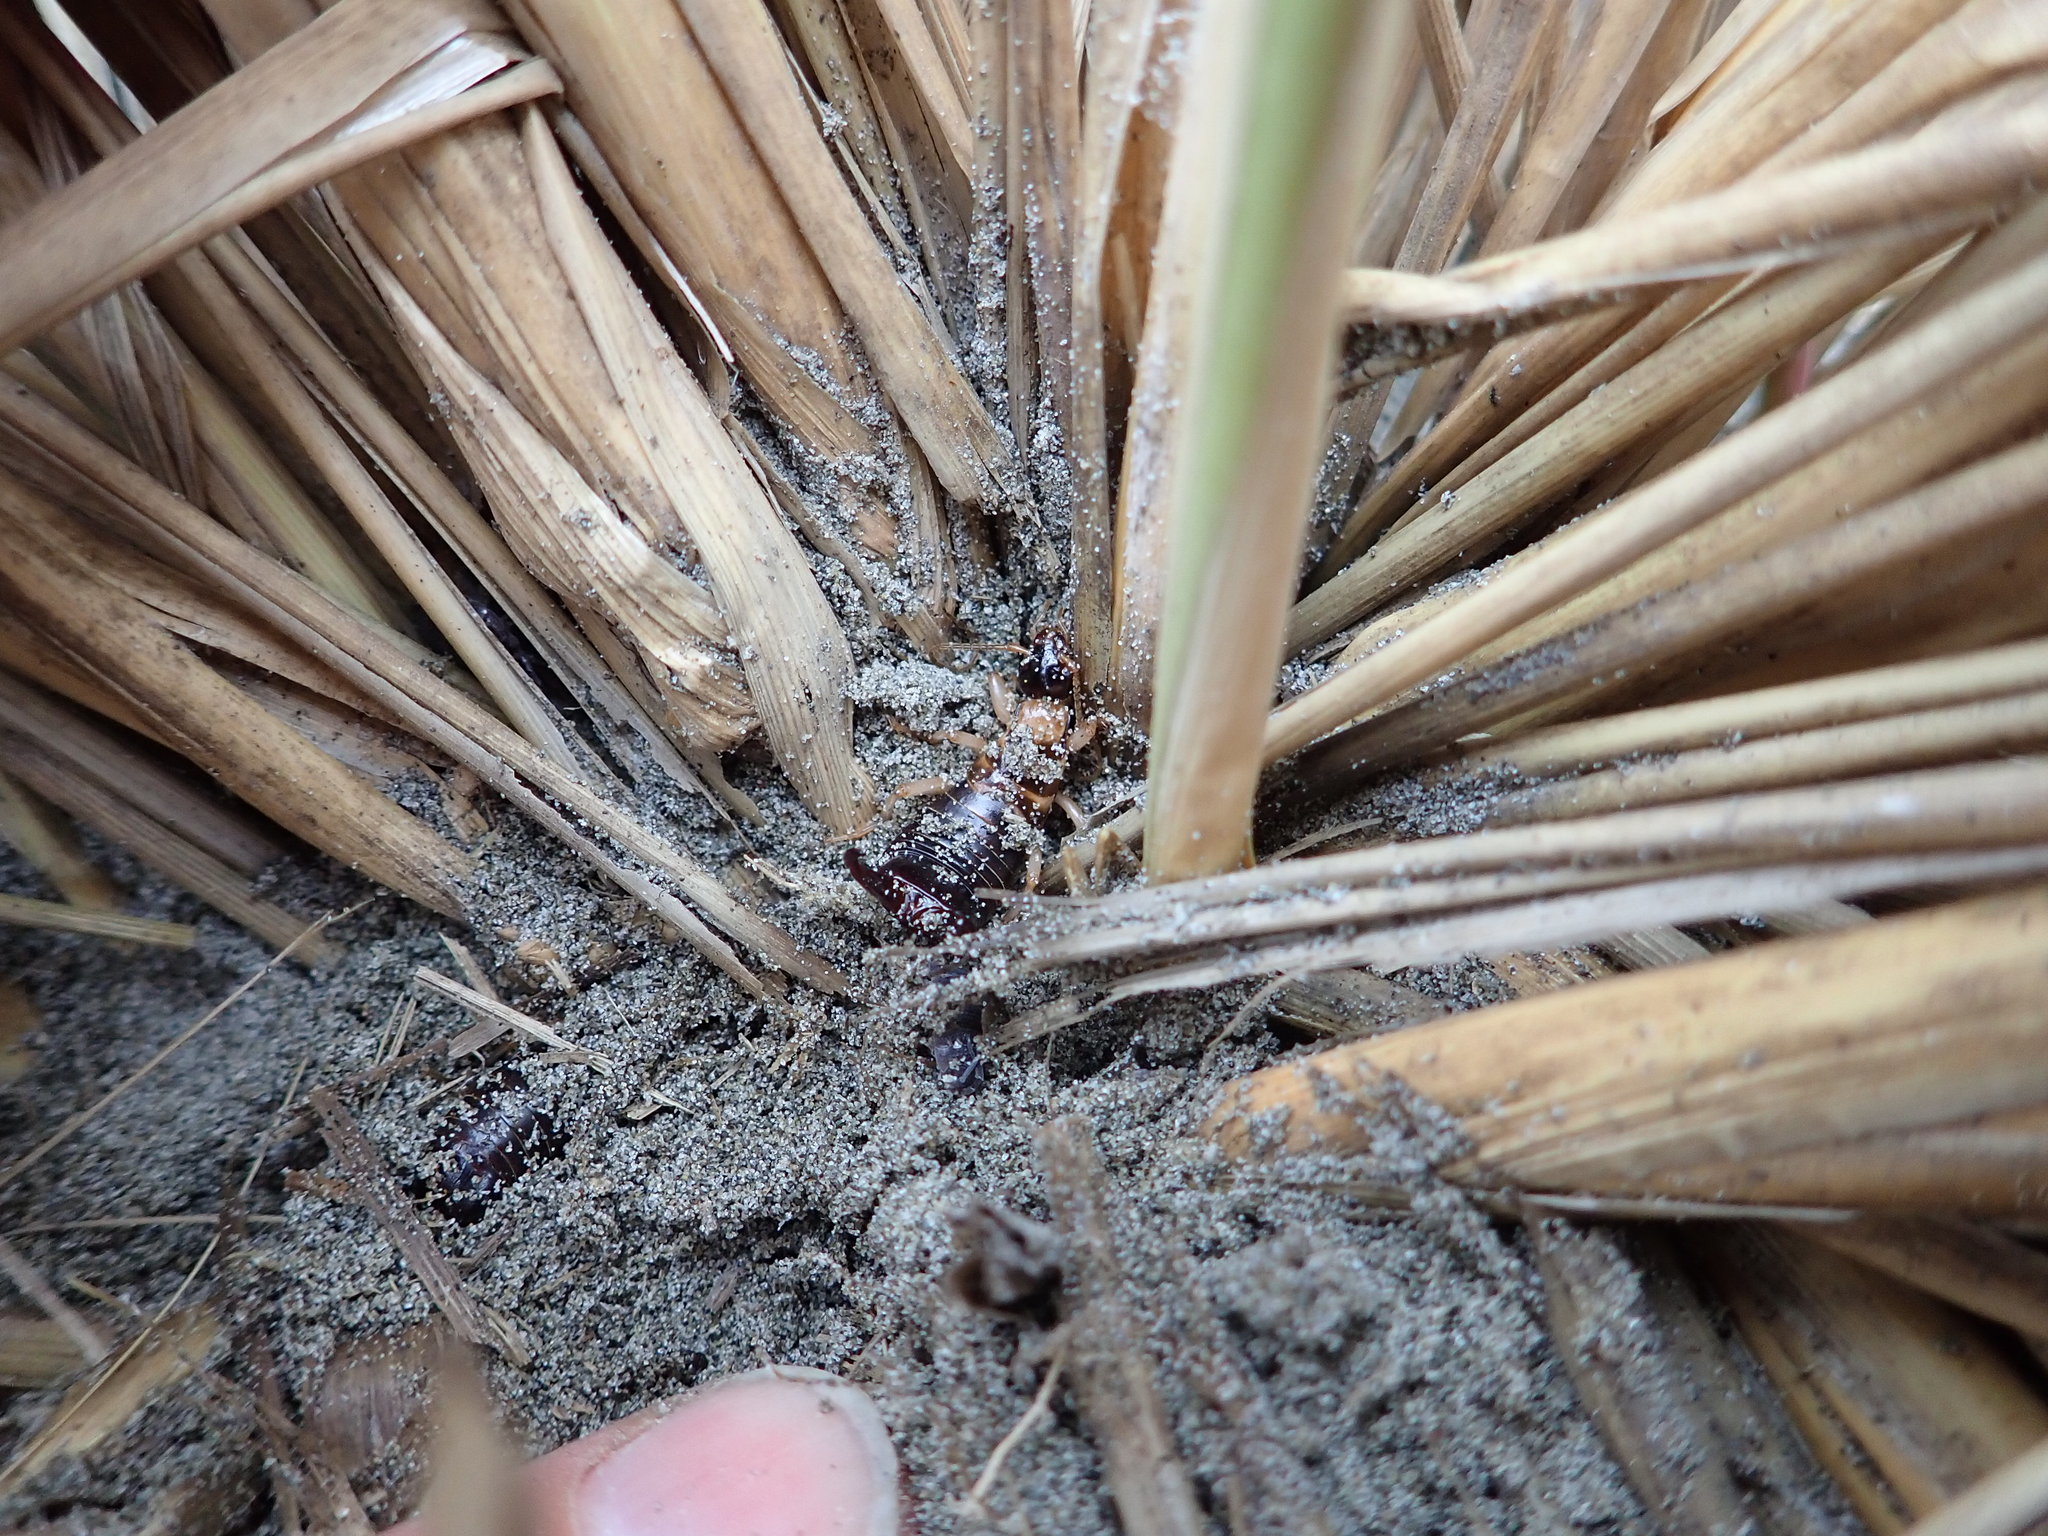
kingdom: Animalia
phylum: Arthropoda
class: Insecta
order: Dermaptera
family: Anisolabididae
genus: Anisolabis
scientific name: Anisolabis littorea
